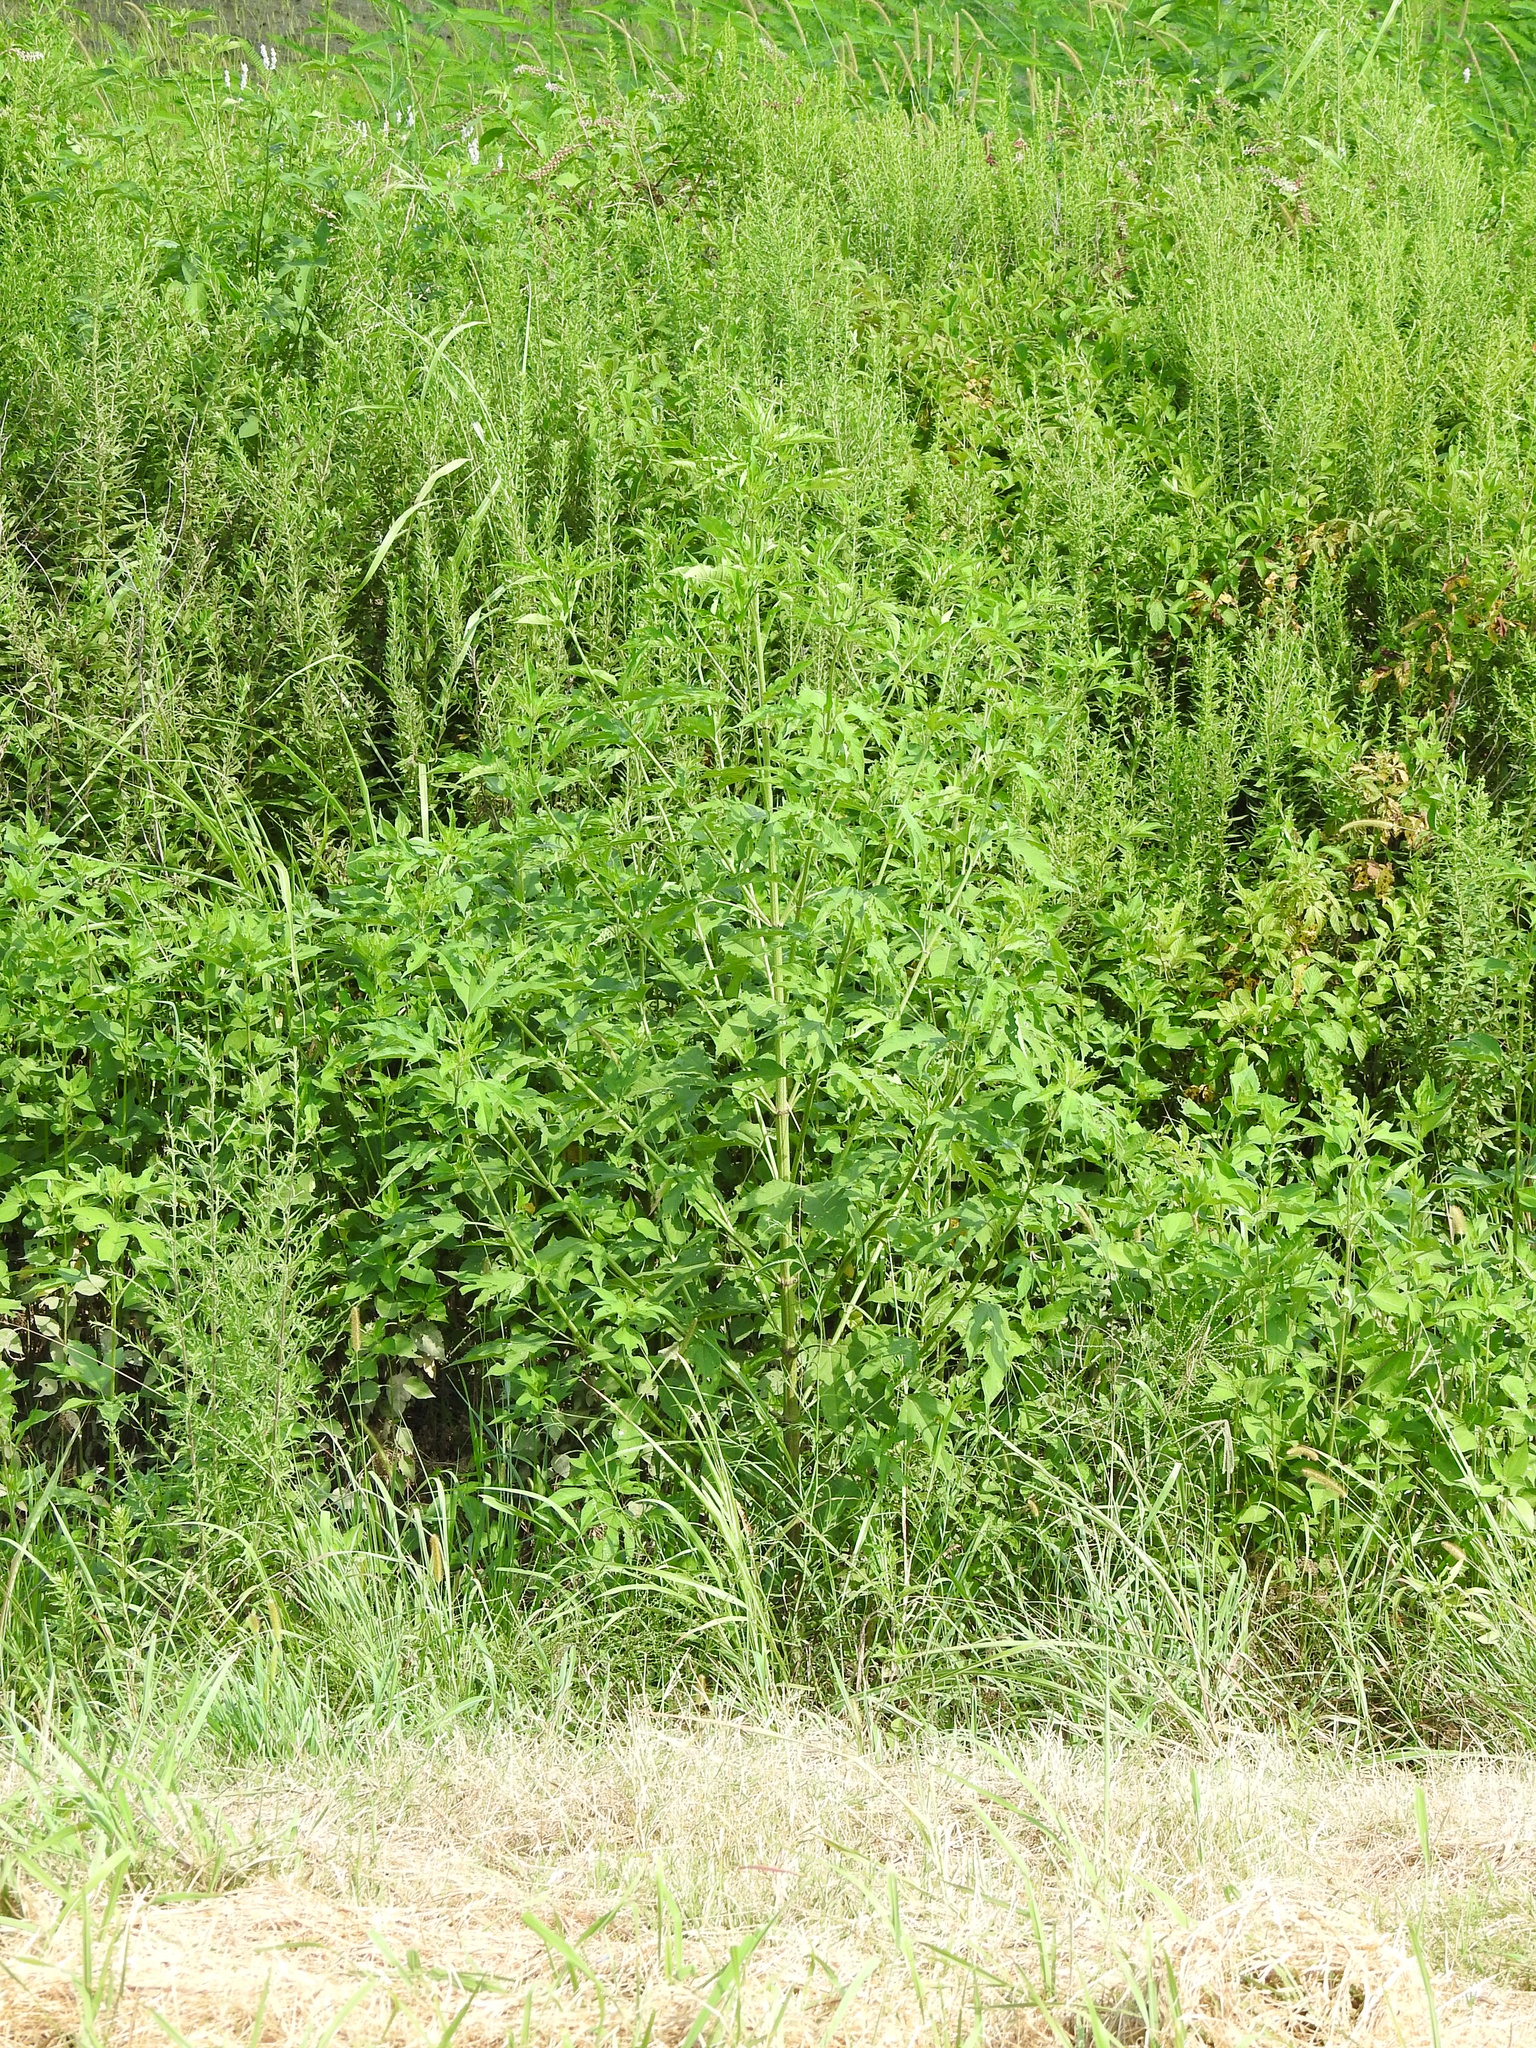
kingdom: Plantae
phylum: Tracheophyta
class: Magnoliopsida
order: Asterales
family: Asteraceae
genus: Ambrosia
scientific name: Ambrosia trifida
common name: Giant ragweed
